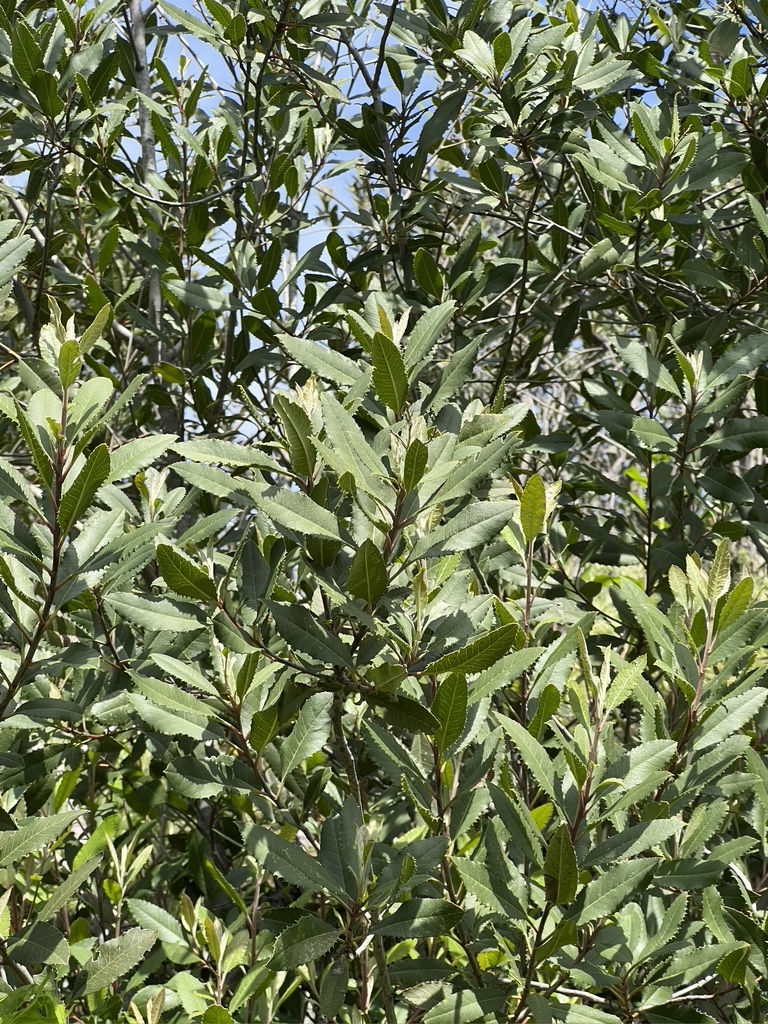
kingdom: Plantae
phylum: Tracheophyta
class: Magnoliopsida
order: Rosales
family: Rosaceae
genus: Heteromeles
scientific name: Heteromeles arbutifolia
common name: California-holly
